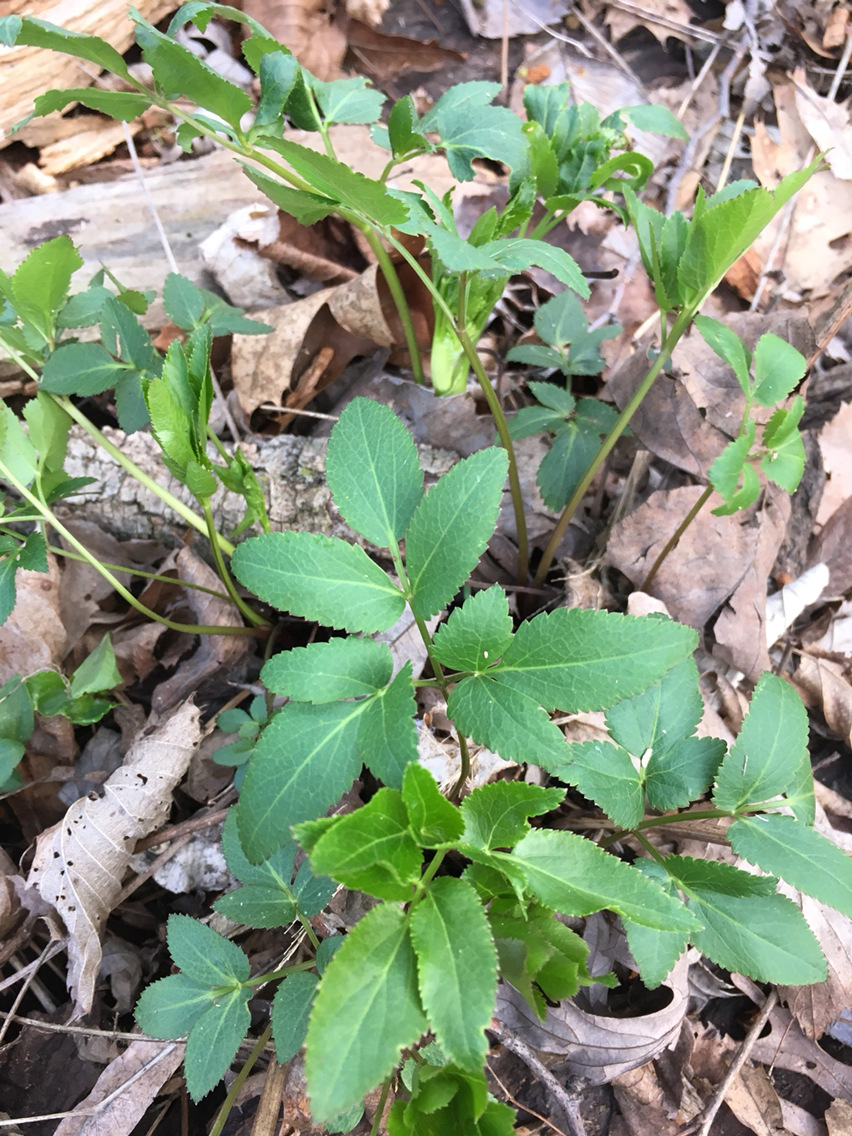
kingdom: Plantae
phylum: Tracheophyta
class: Magnoliopsida
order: Apiales
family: Apiaceae
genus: Zizia
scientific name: Zizia aurea
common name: Golden alexanders
